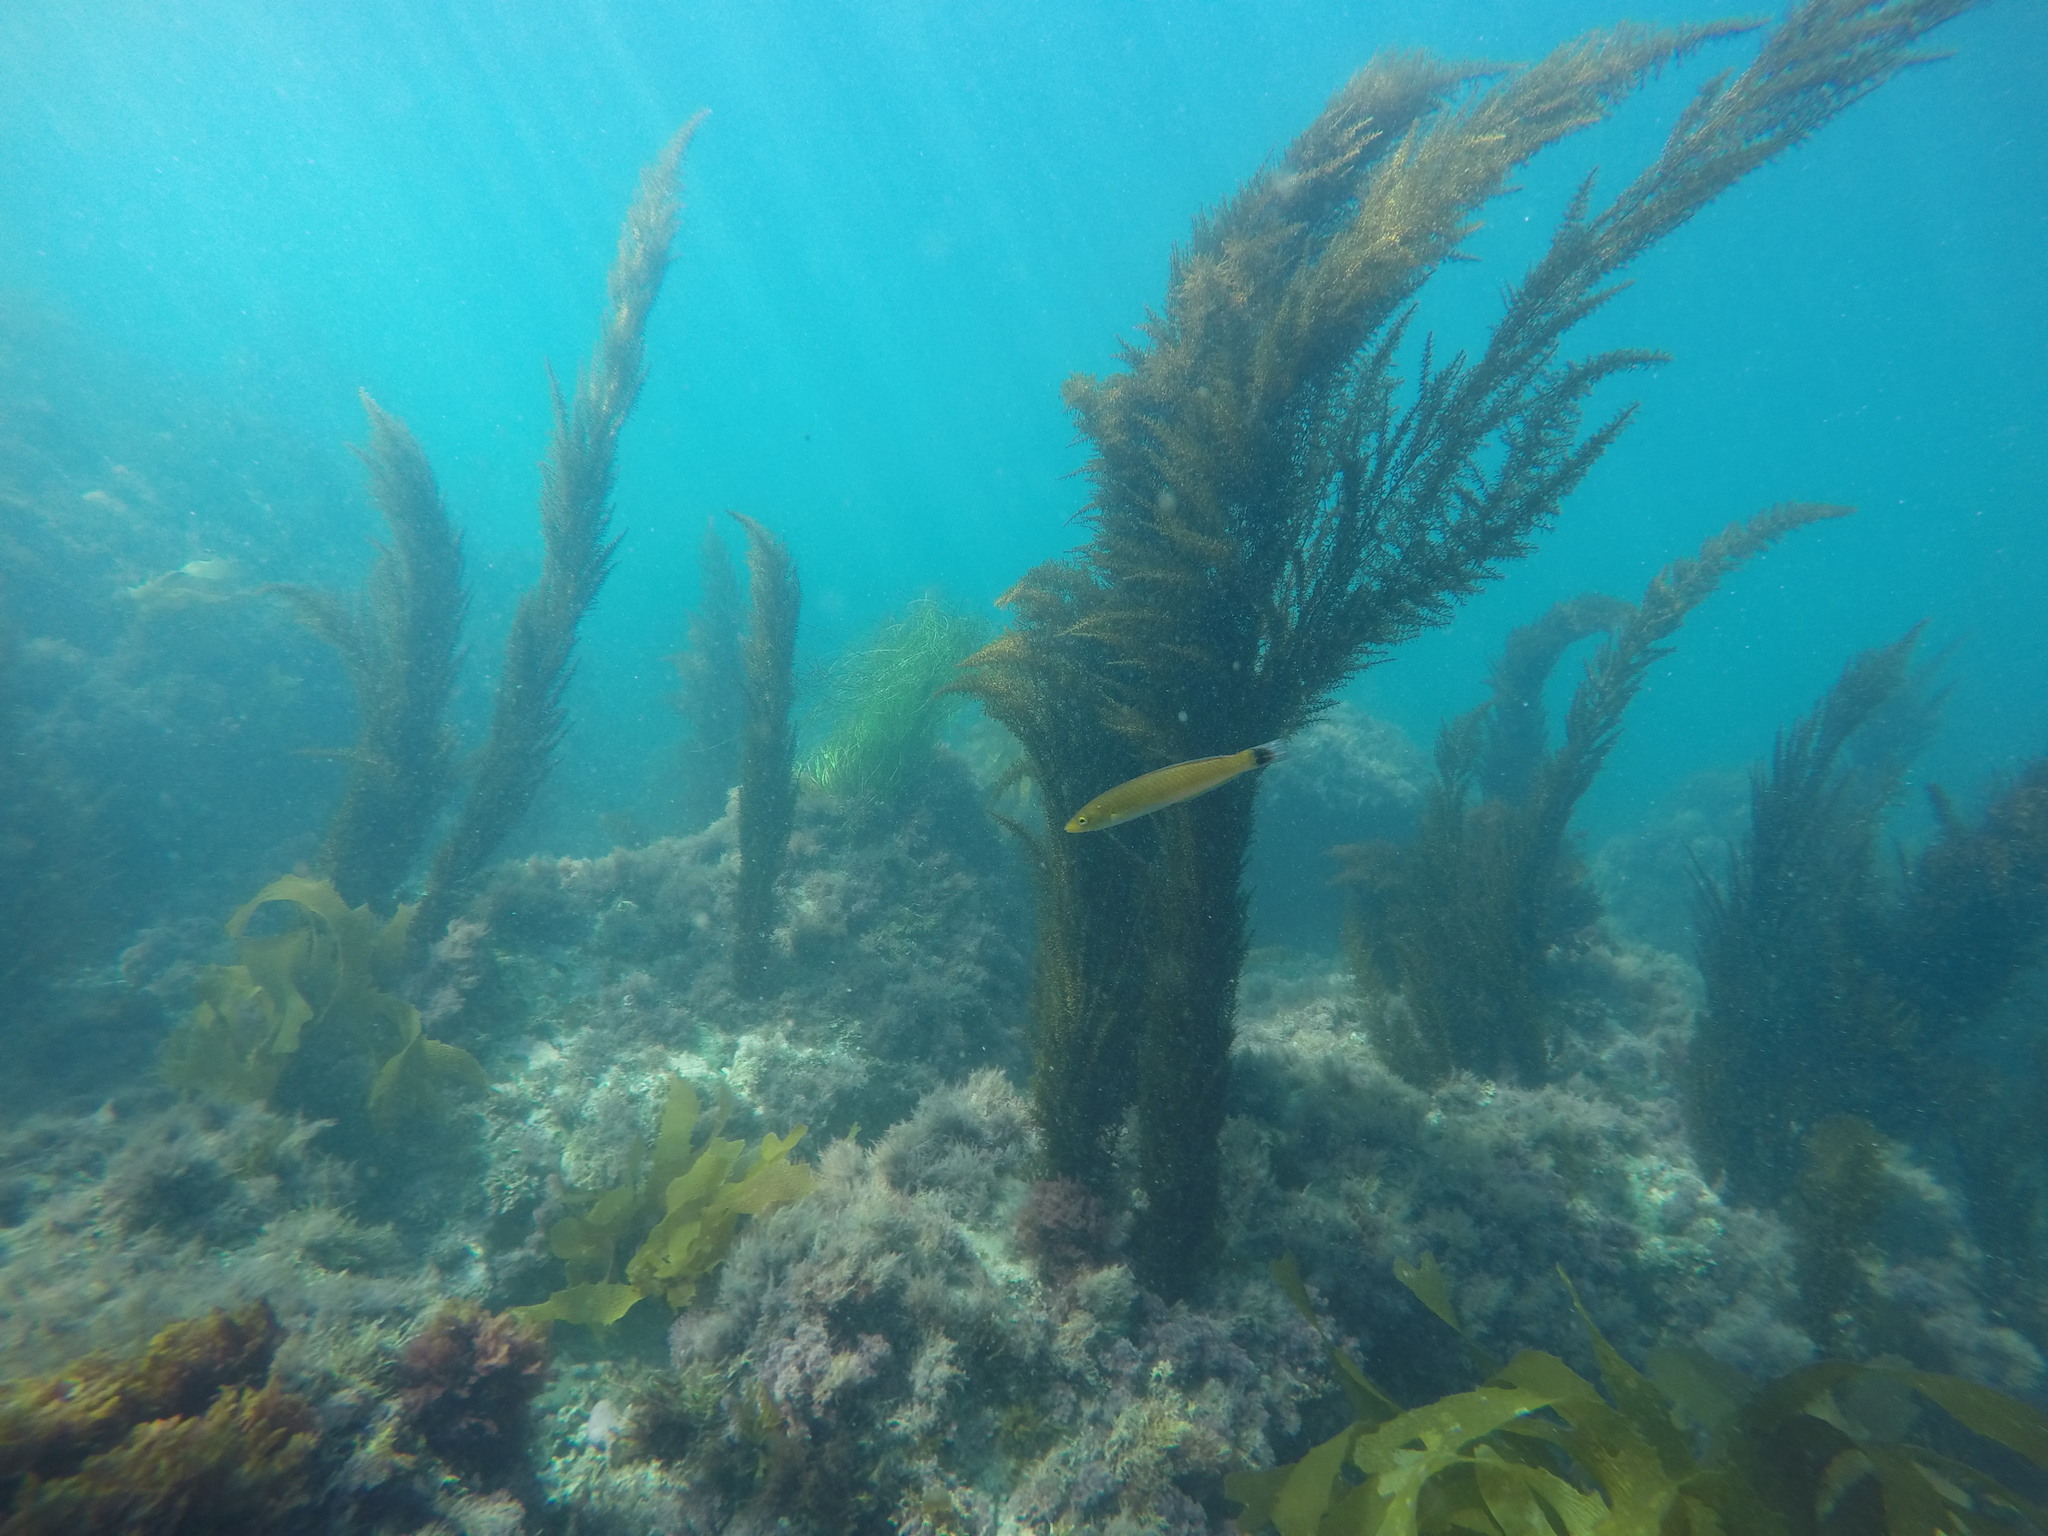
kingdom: Animalia
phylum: Chordata
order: Perciformes
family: Labridae
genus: Oxyjulis
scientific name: Oxyjulis californica
